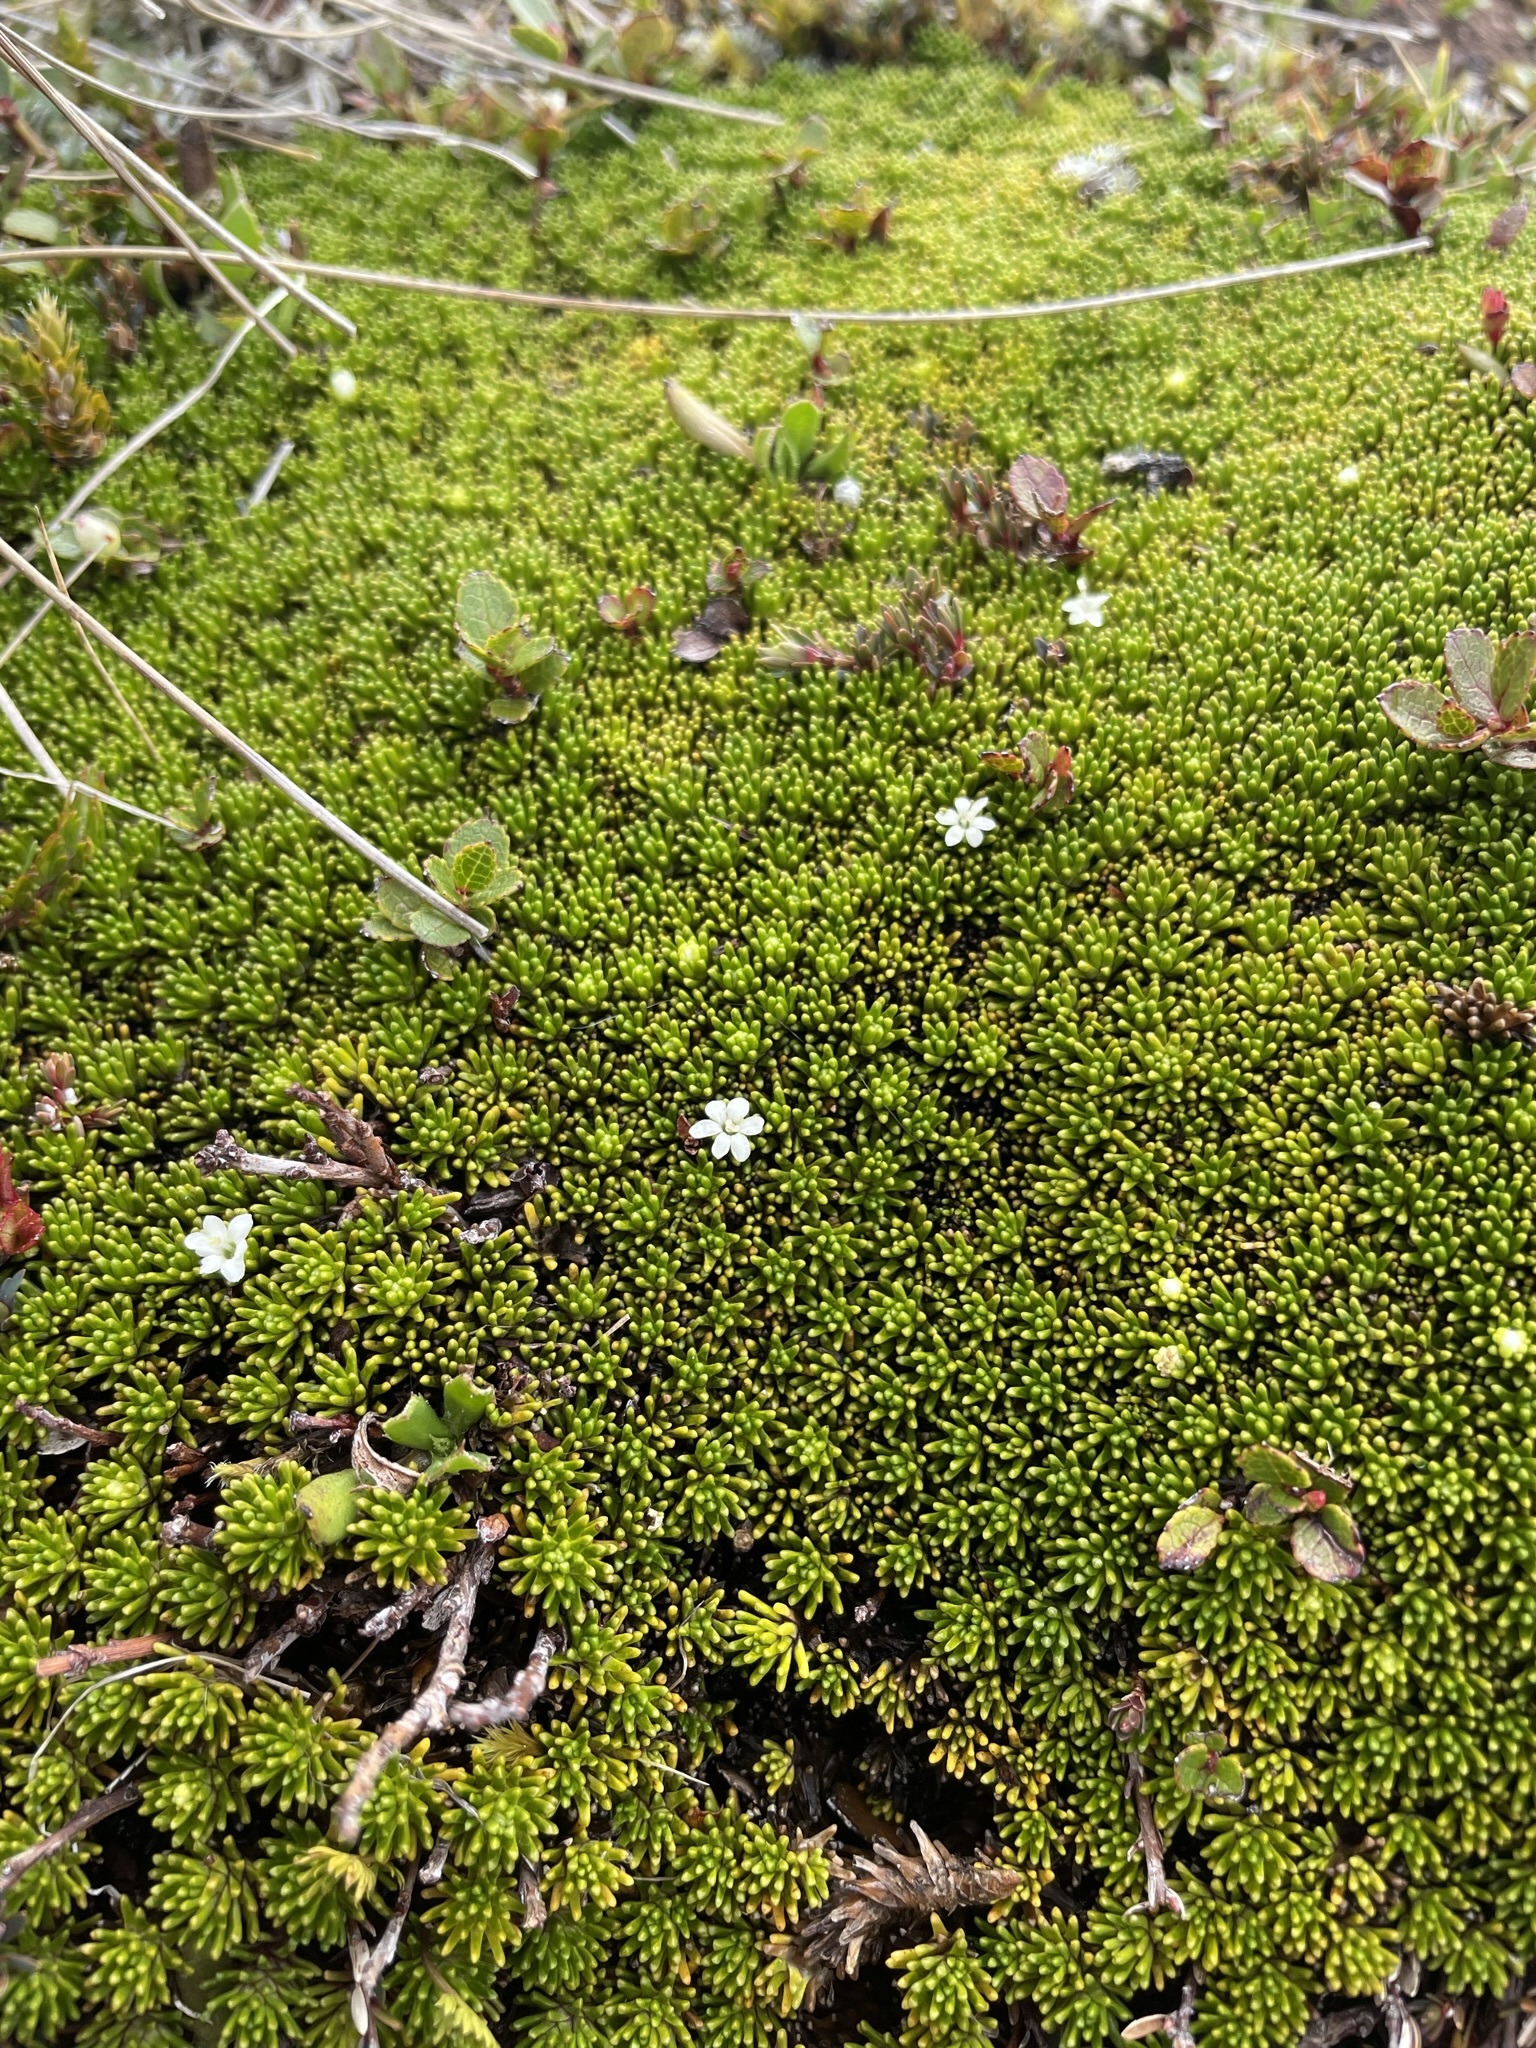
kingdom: Plantae
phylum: Tracheophyta
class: Magnoliopsida
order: Asterales
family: Stylidiaceae
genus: Phyllachne
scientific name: Phyllachne colensoi
